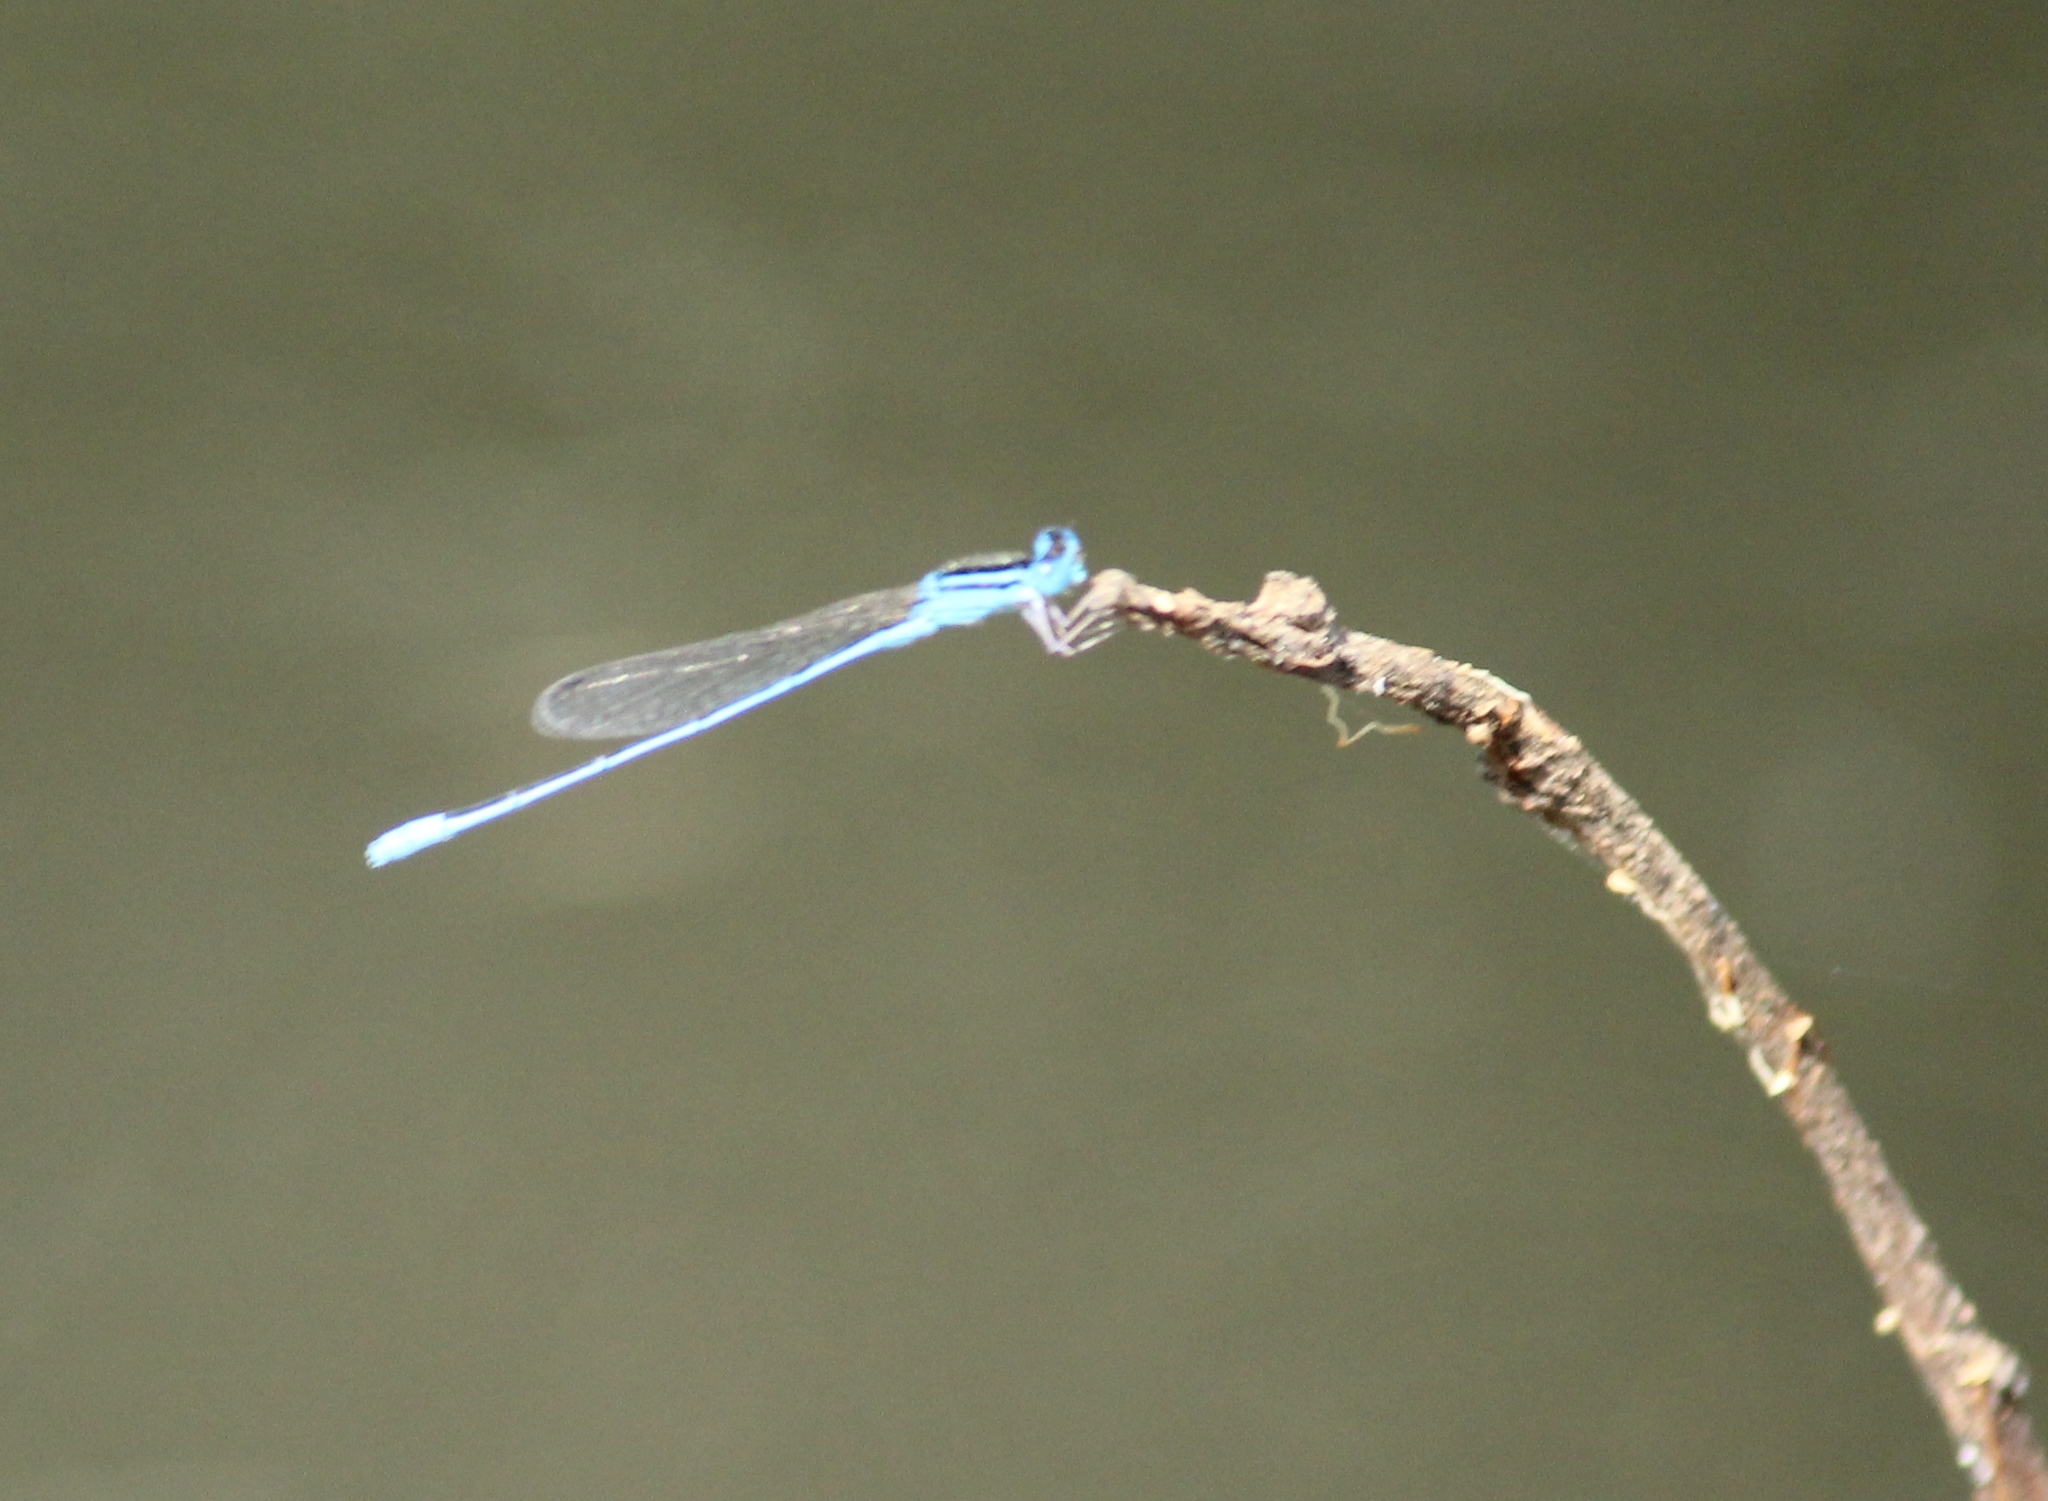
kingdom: Animalia
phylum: Arthropoda
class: Insecta
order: Odonata
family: Coenagrionidae
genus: Amphiallagma
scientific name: Amphiallagma parvum
